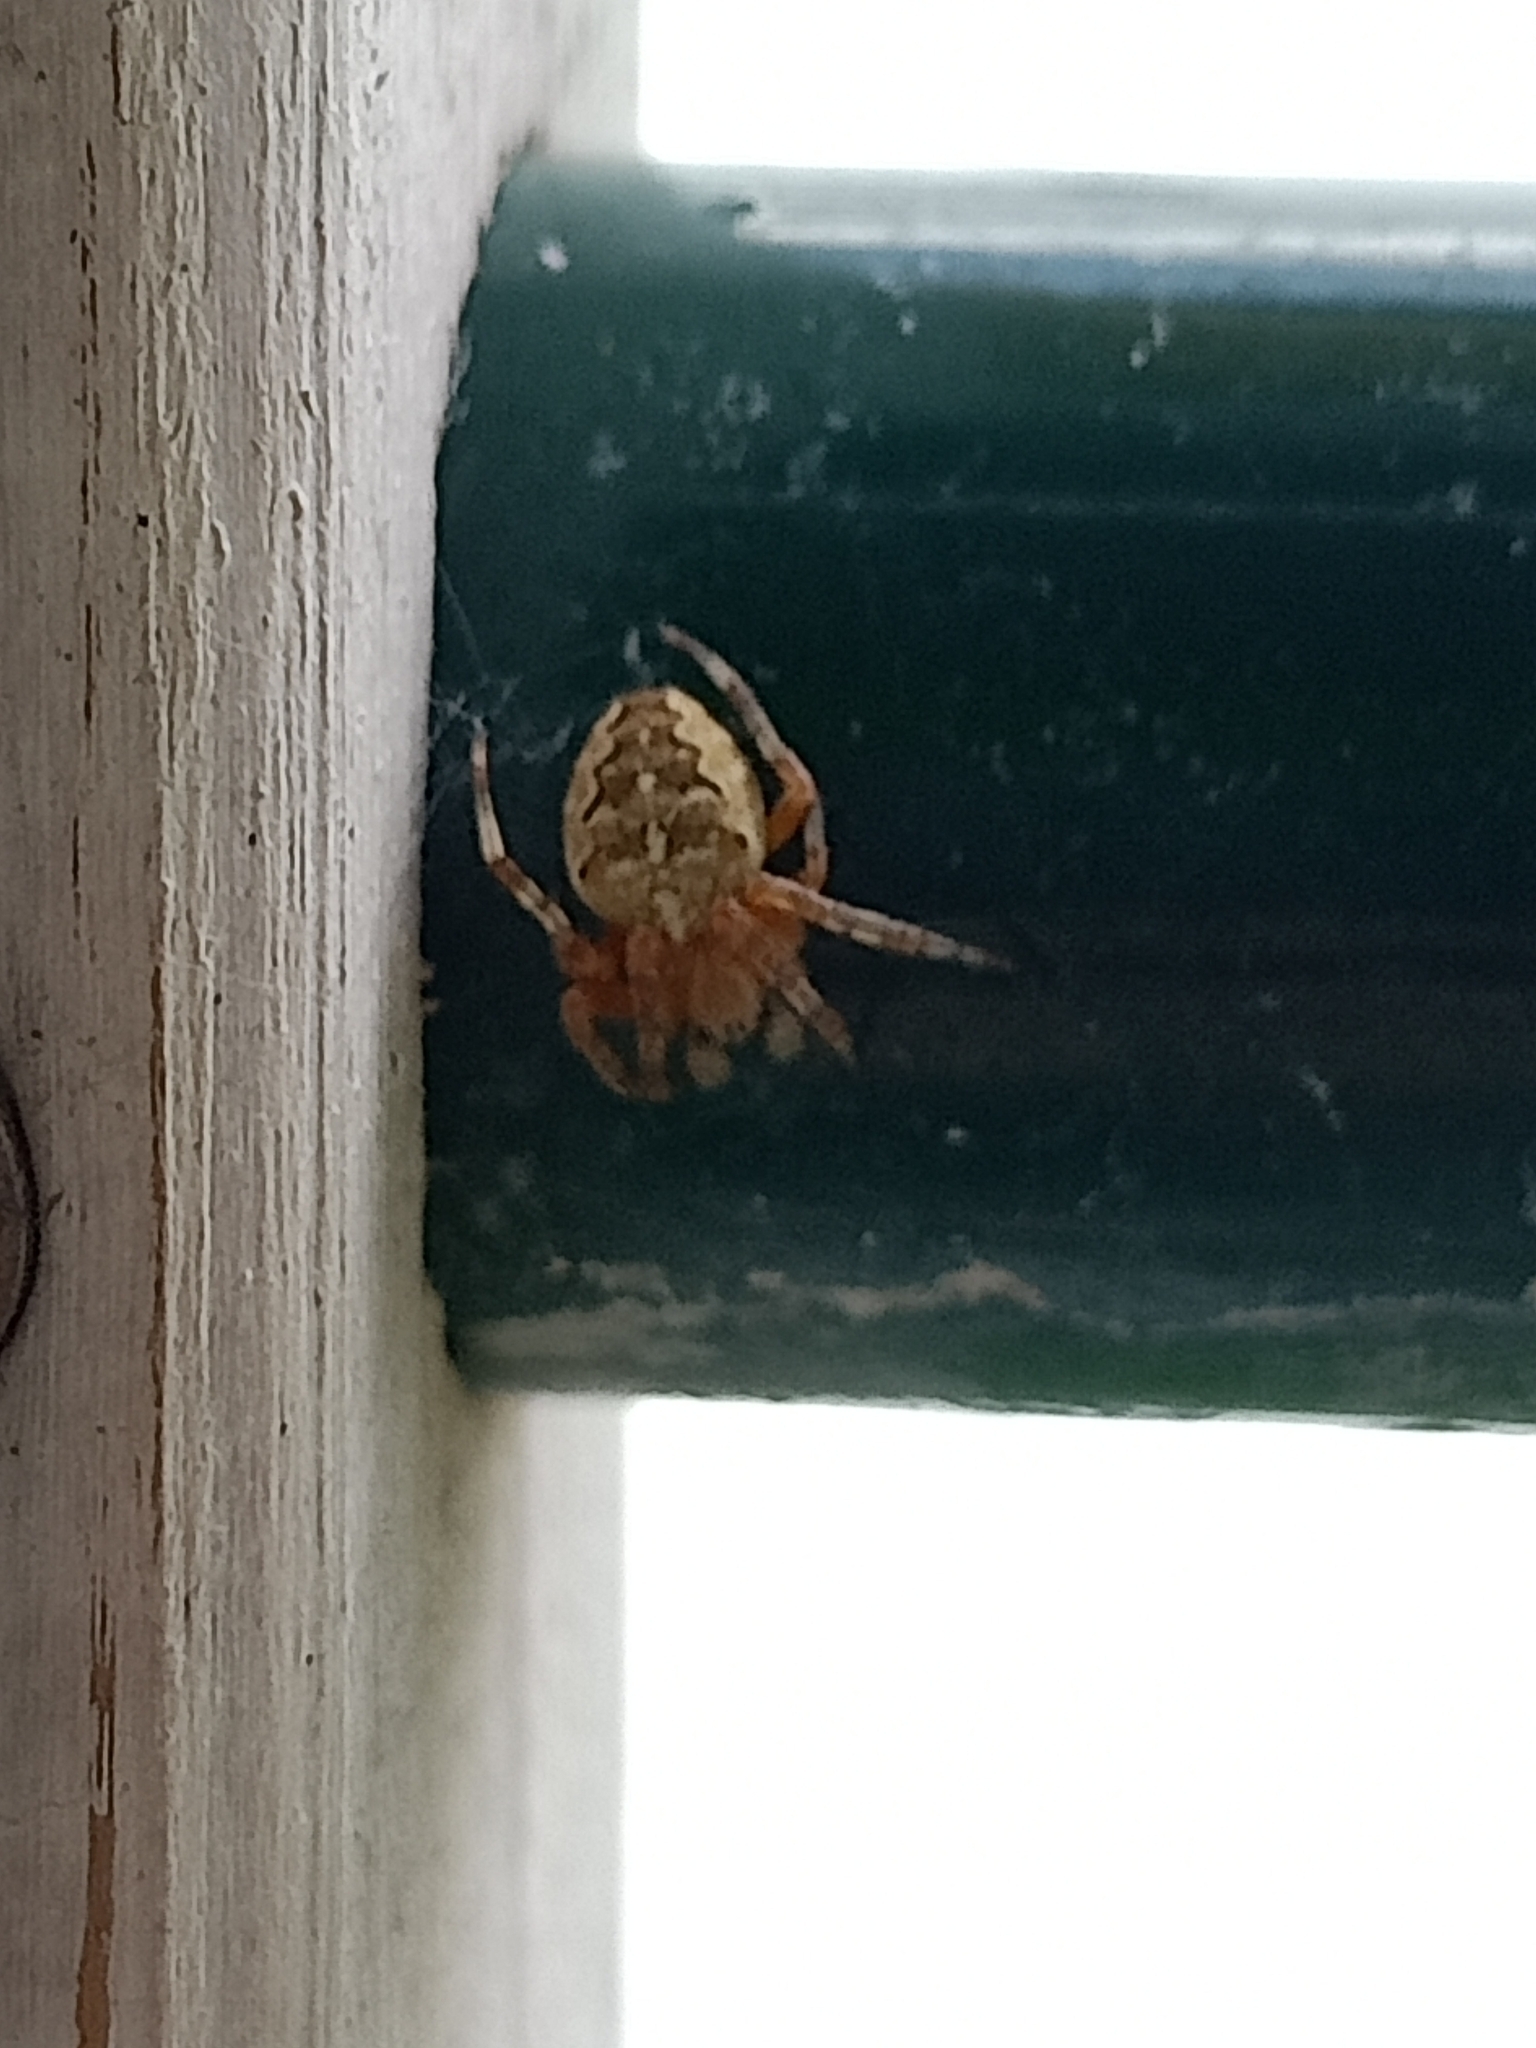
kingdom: Animalia
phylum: Arthropoda
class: Arachnida
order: Araneae
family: Araneidae
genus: Araneus
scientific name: Araneus diadematus
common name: Cross orbweaver
